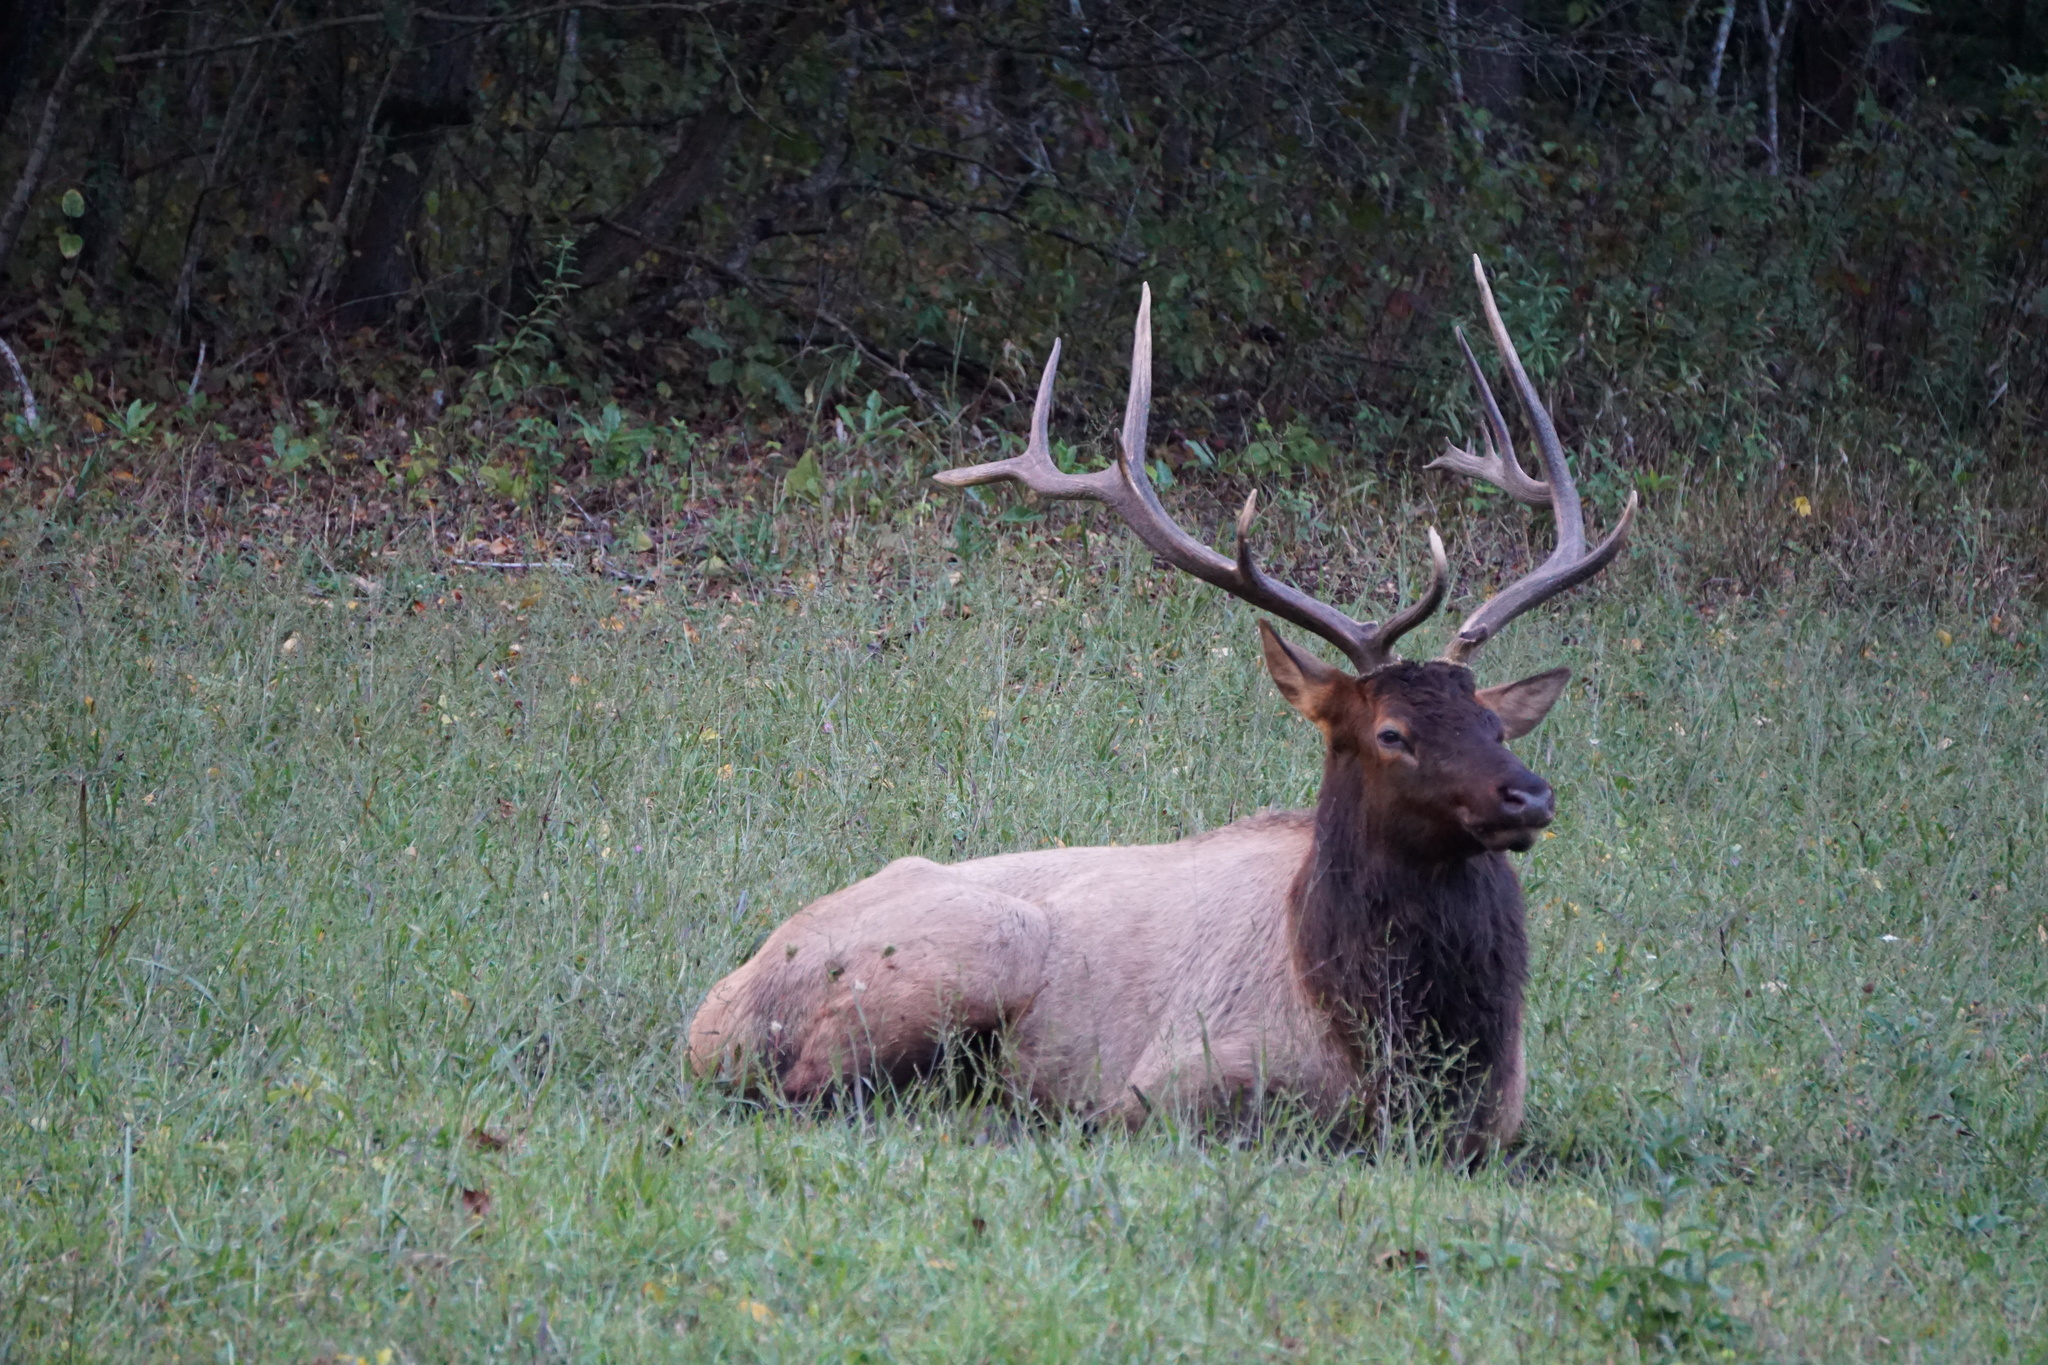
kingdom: Animalia
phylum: Chordata
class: Mammalia
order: Artiodactyla
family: Cervidae
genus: Cervus
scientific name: Cervus elaphus
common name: Red deer
